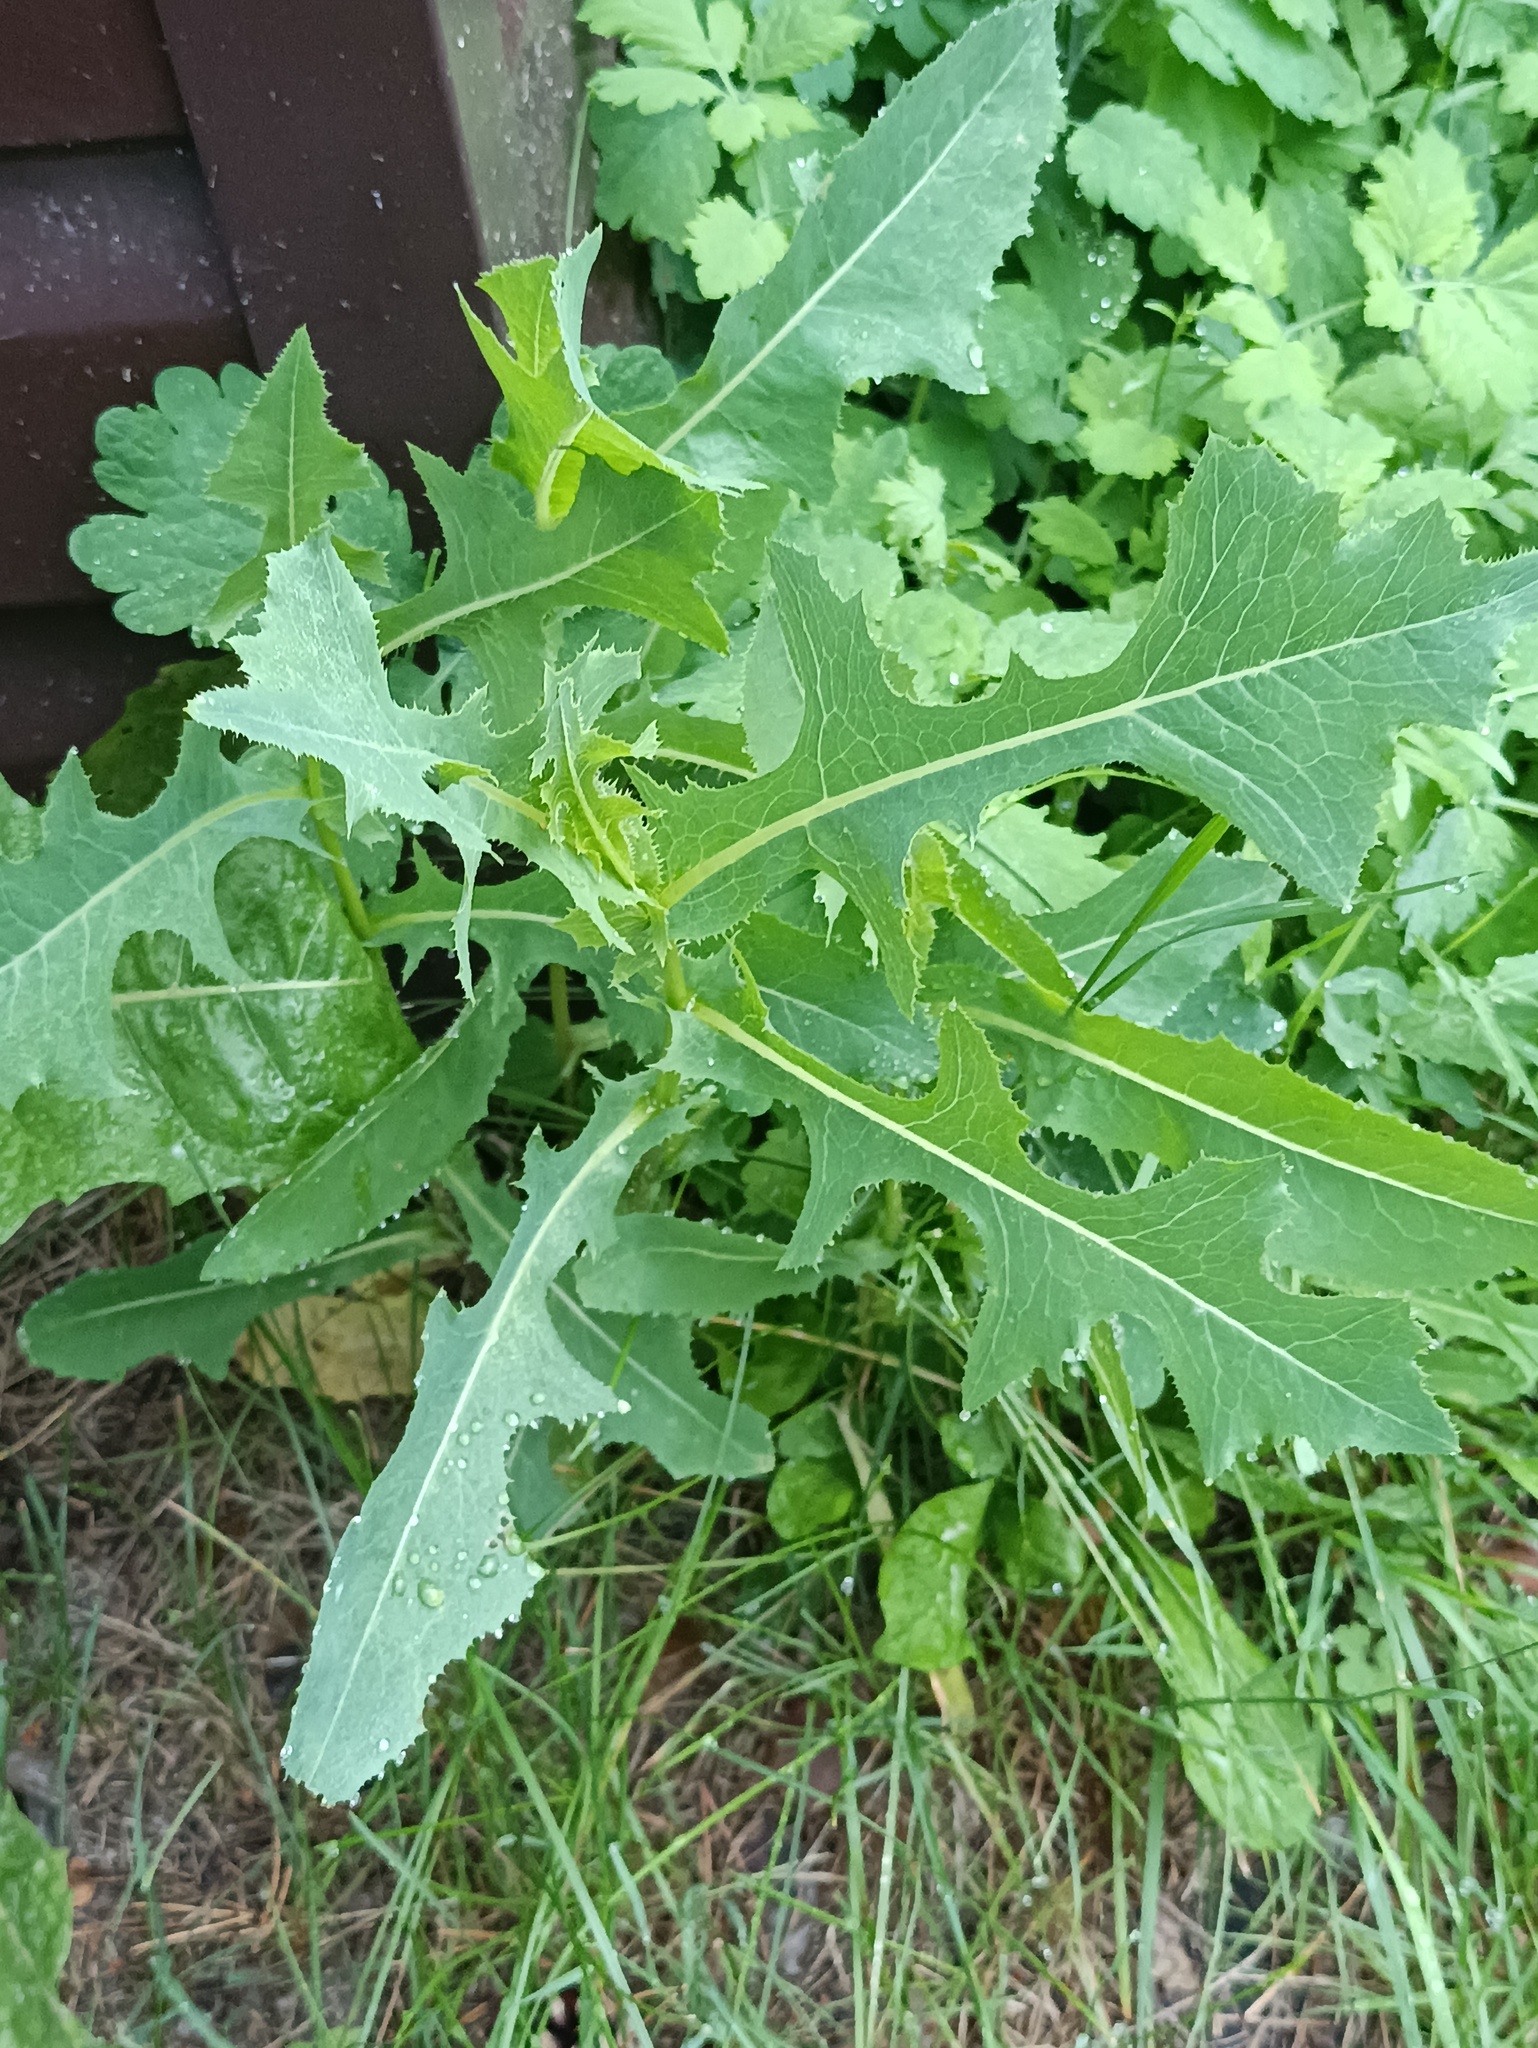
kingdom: Plantae
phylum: Tracheophyta
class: Magnoliopsida
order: Asterales
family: Asteraceae
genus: Lactuca
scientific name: Lactuca serriola
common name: Prickly lettuce
